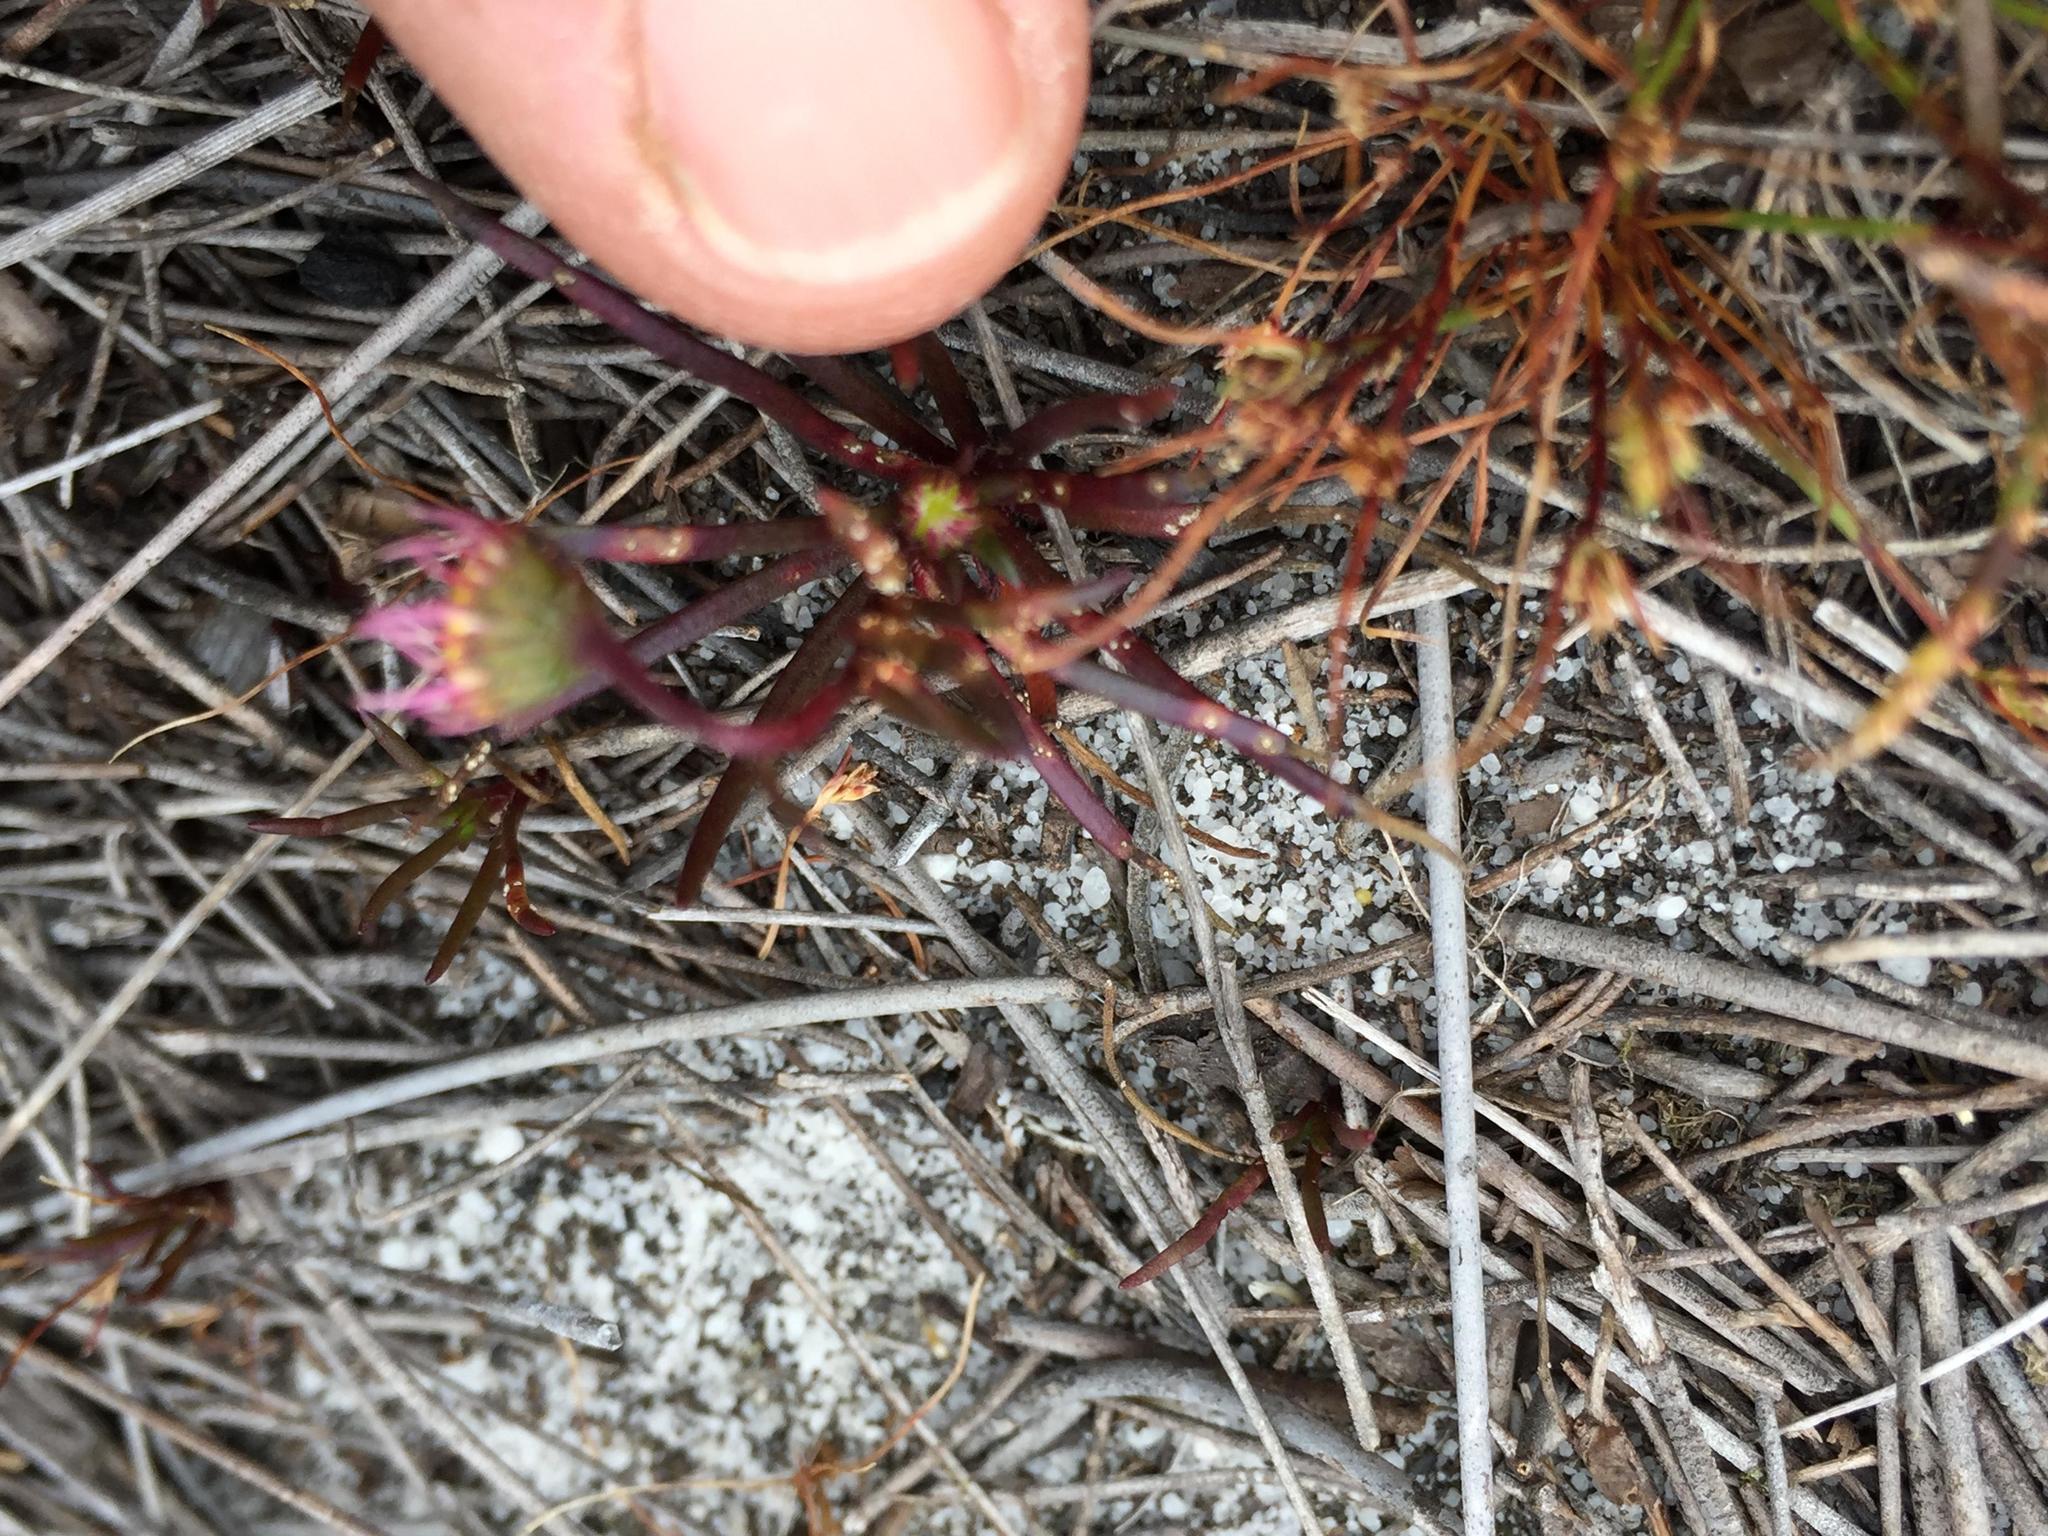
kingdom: Plantae
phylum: Tracheophyta
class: Magnoliopsida
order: Asterales
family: Asteraceae
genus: Felicia
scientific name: Felicia tenella
